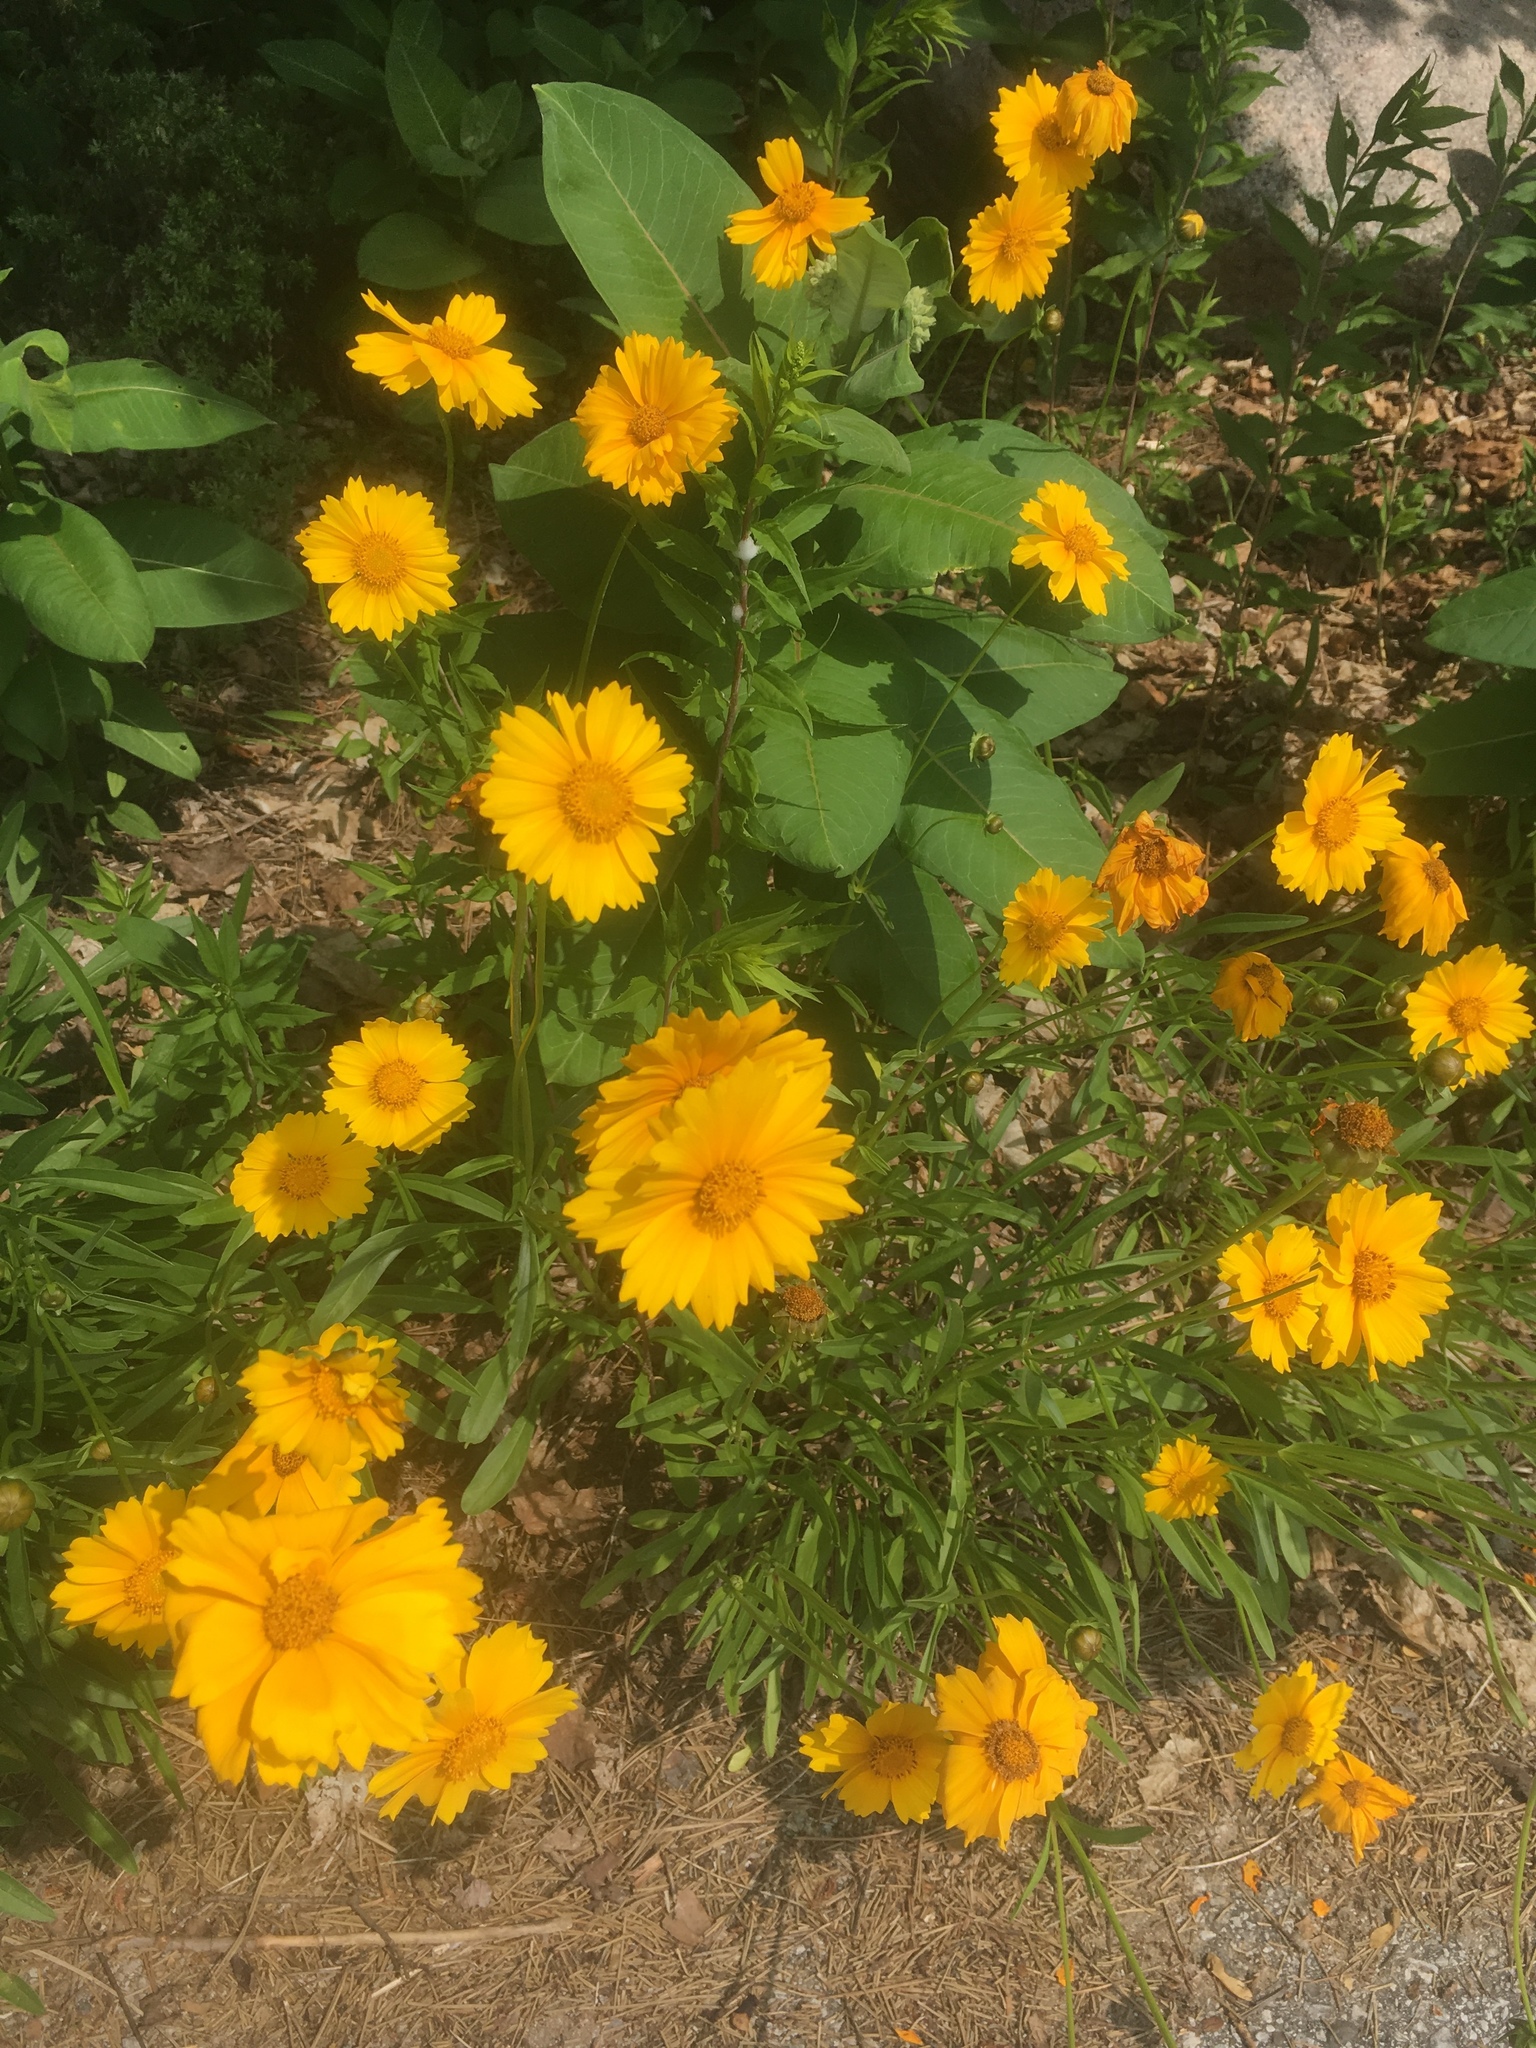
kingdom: Plantae
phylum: Tracheophyta
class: Magnoliopsida
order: Asterales
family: Asteraceae
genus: Coreopsis
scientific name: Coreopsis lanceolata
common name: Garden coreopsis
